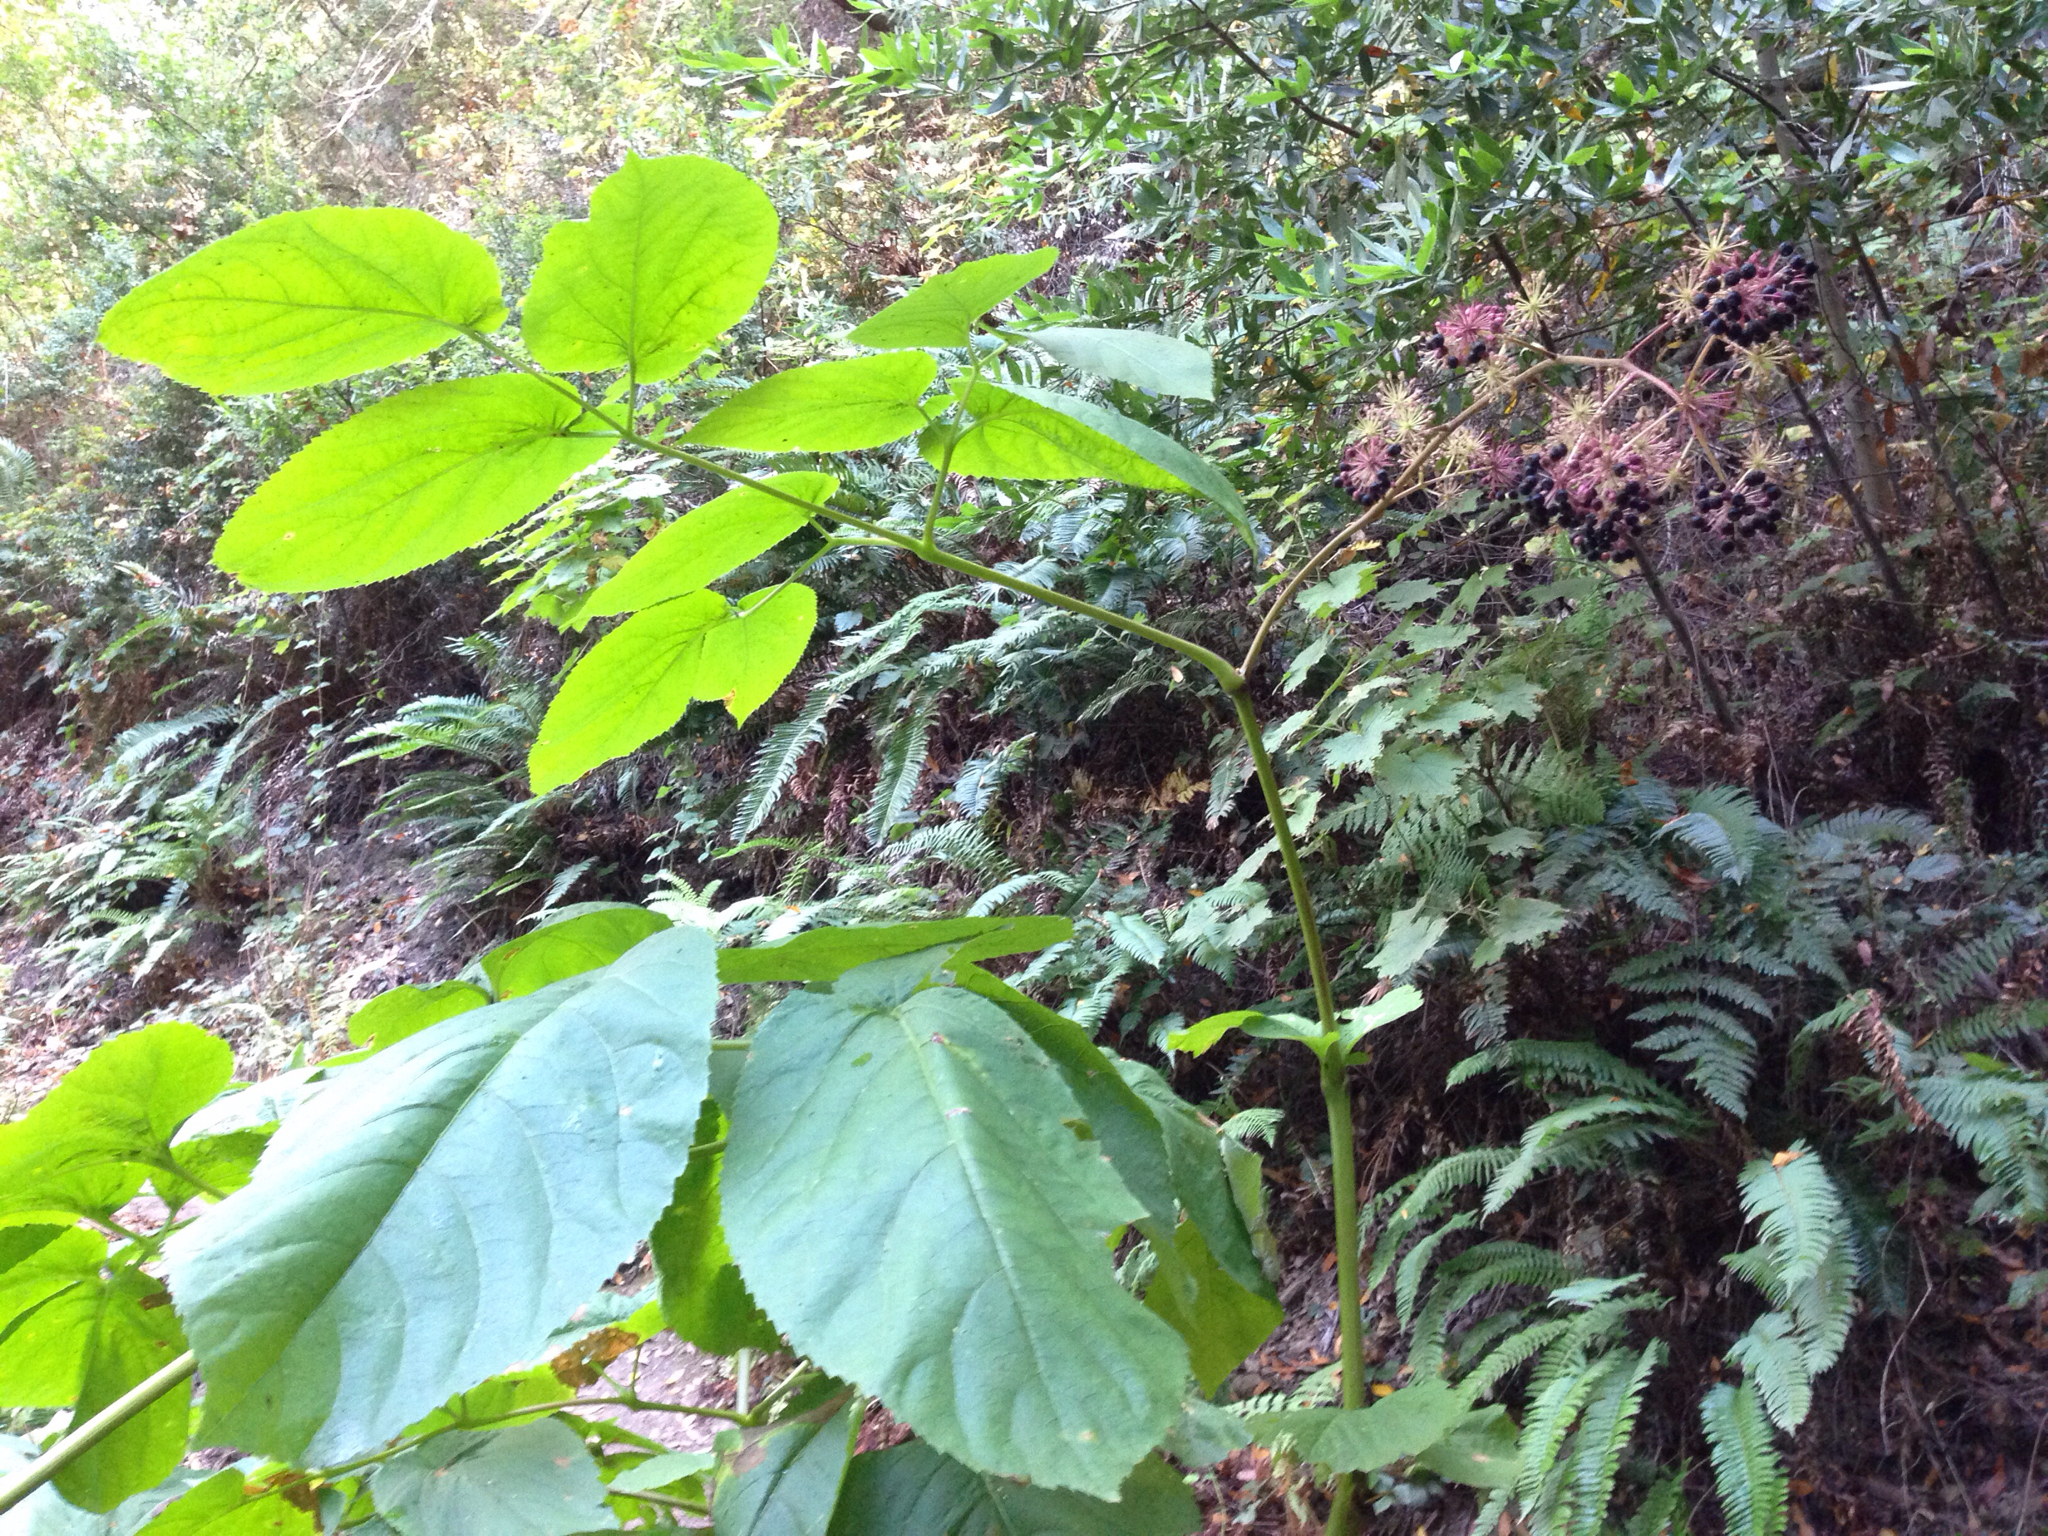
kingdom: Plantae
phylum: Tracheophyta
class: Magnoliopsida
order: Apiales
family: Araliaceae
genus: Aralia
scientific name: Aralia californica
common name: California-ginseng
